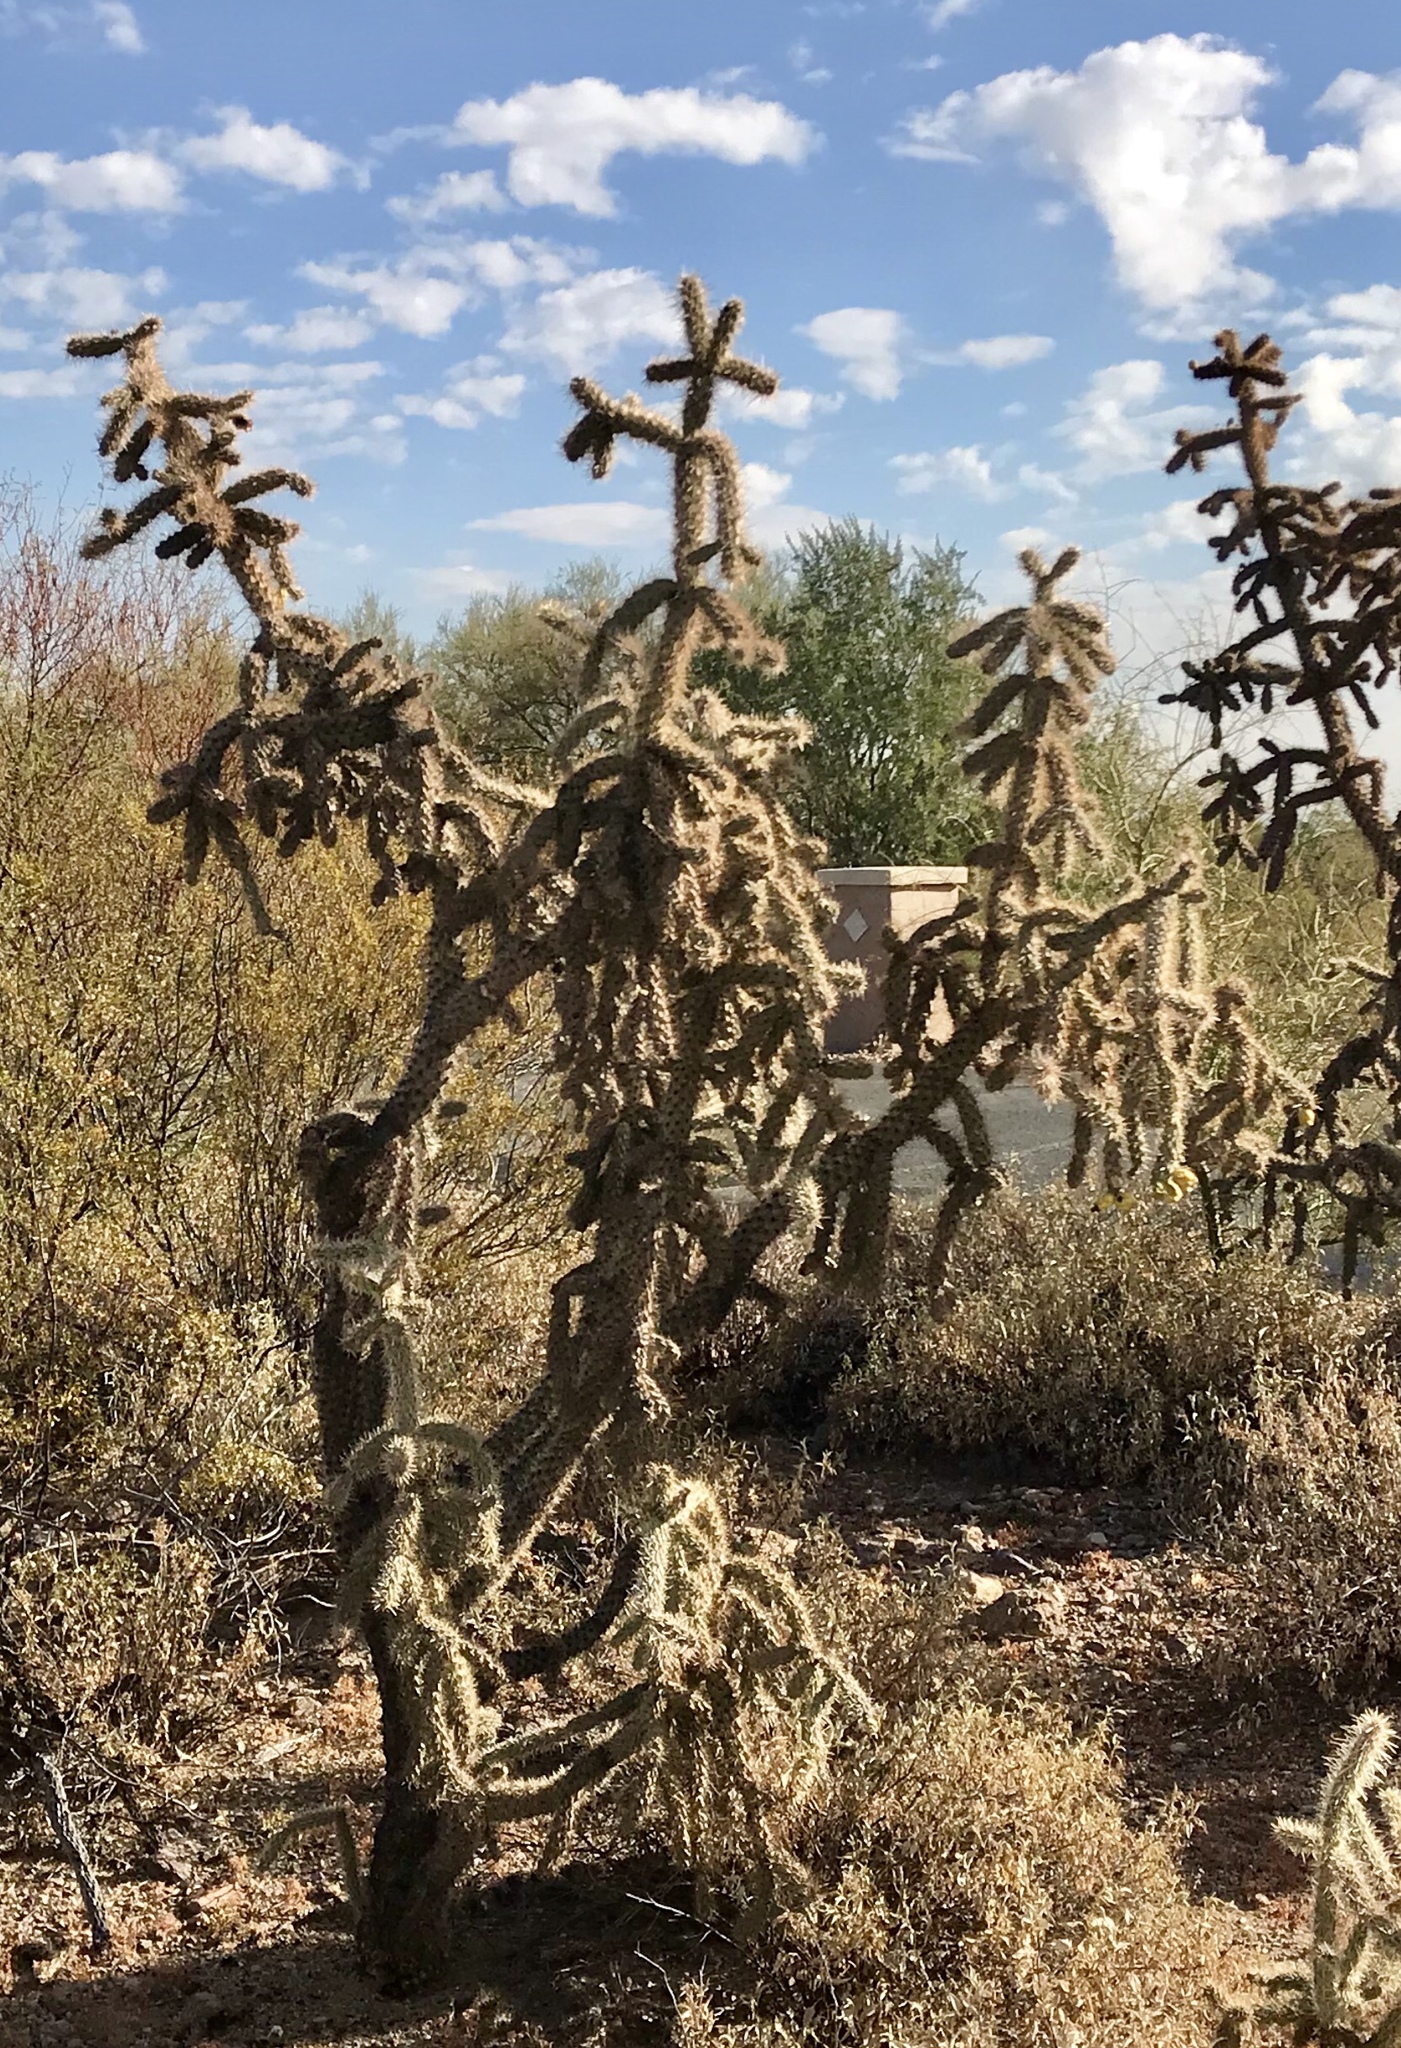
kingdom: Plantae
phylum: Tracheophyta
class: Magnoliopsida
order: Caryophyllales
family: Cactaceae
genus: Cylindropuntia
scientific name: Cylindropuntia imbricata
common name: Candelabrum cactus
